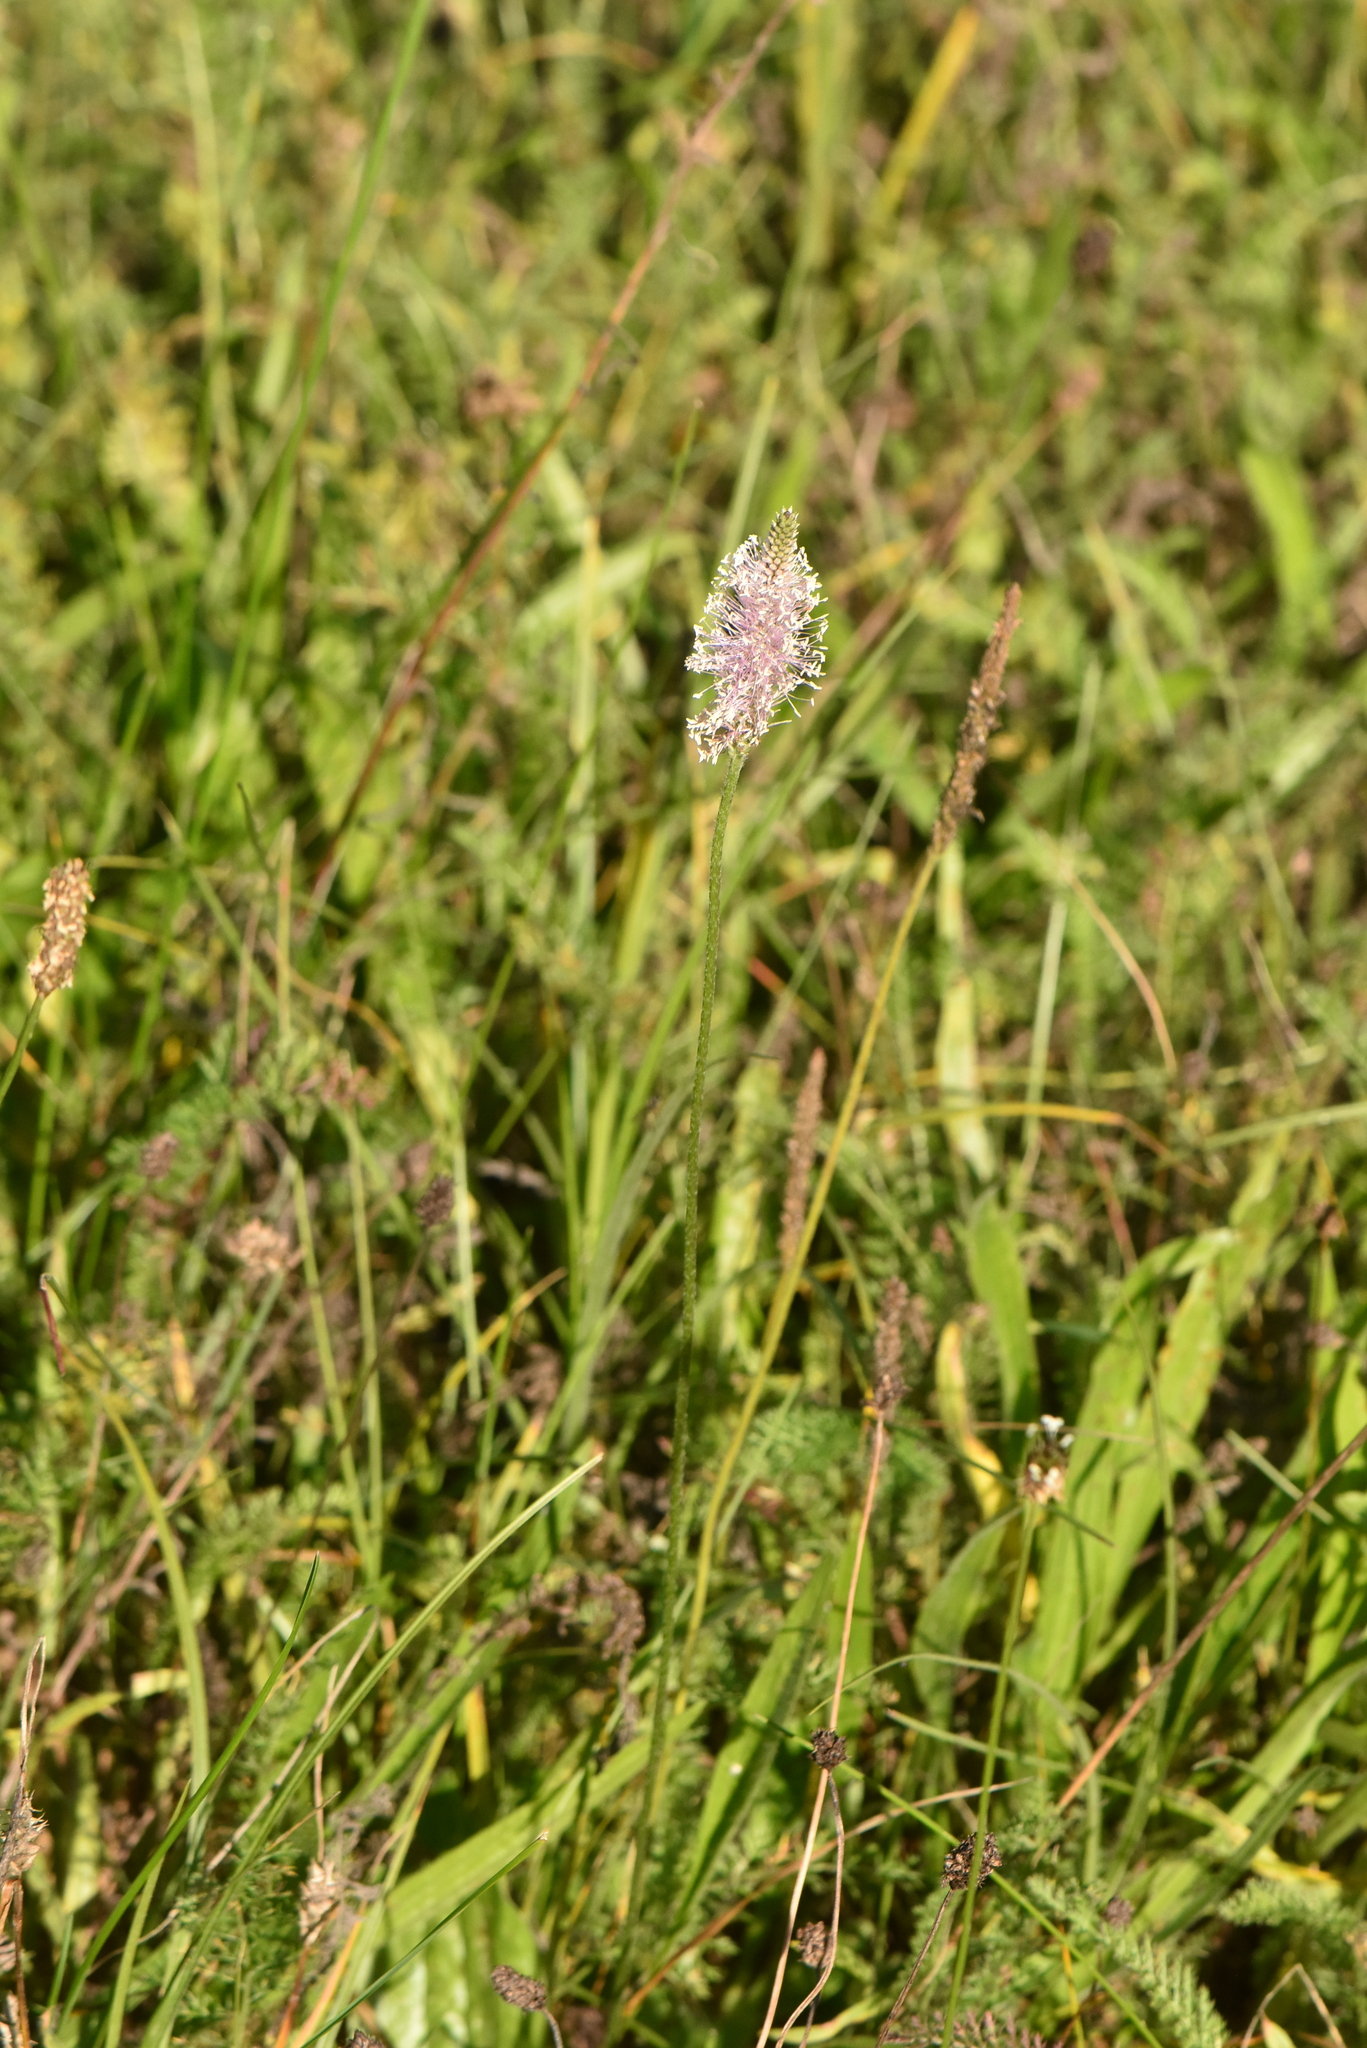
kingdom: Plantae
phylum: Tracheophyta
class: Magnoliopsida
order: Lamiales
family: Plantaginaceae
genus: Plantago
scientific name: Plantago lanceolata
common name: Ribwort plantain
